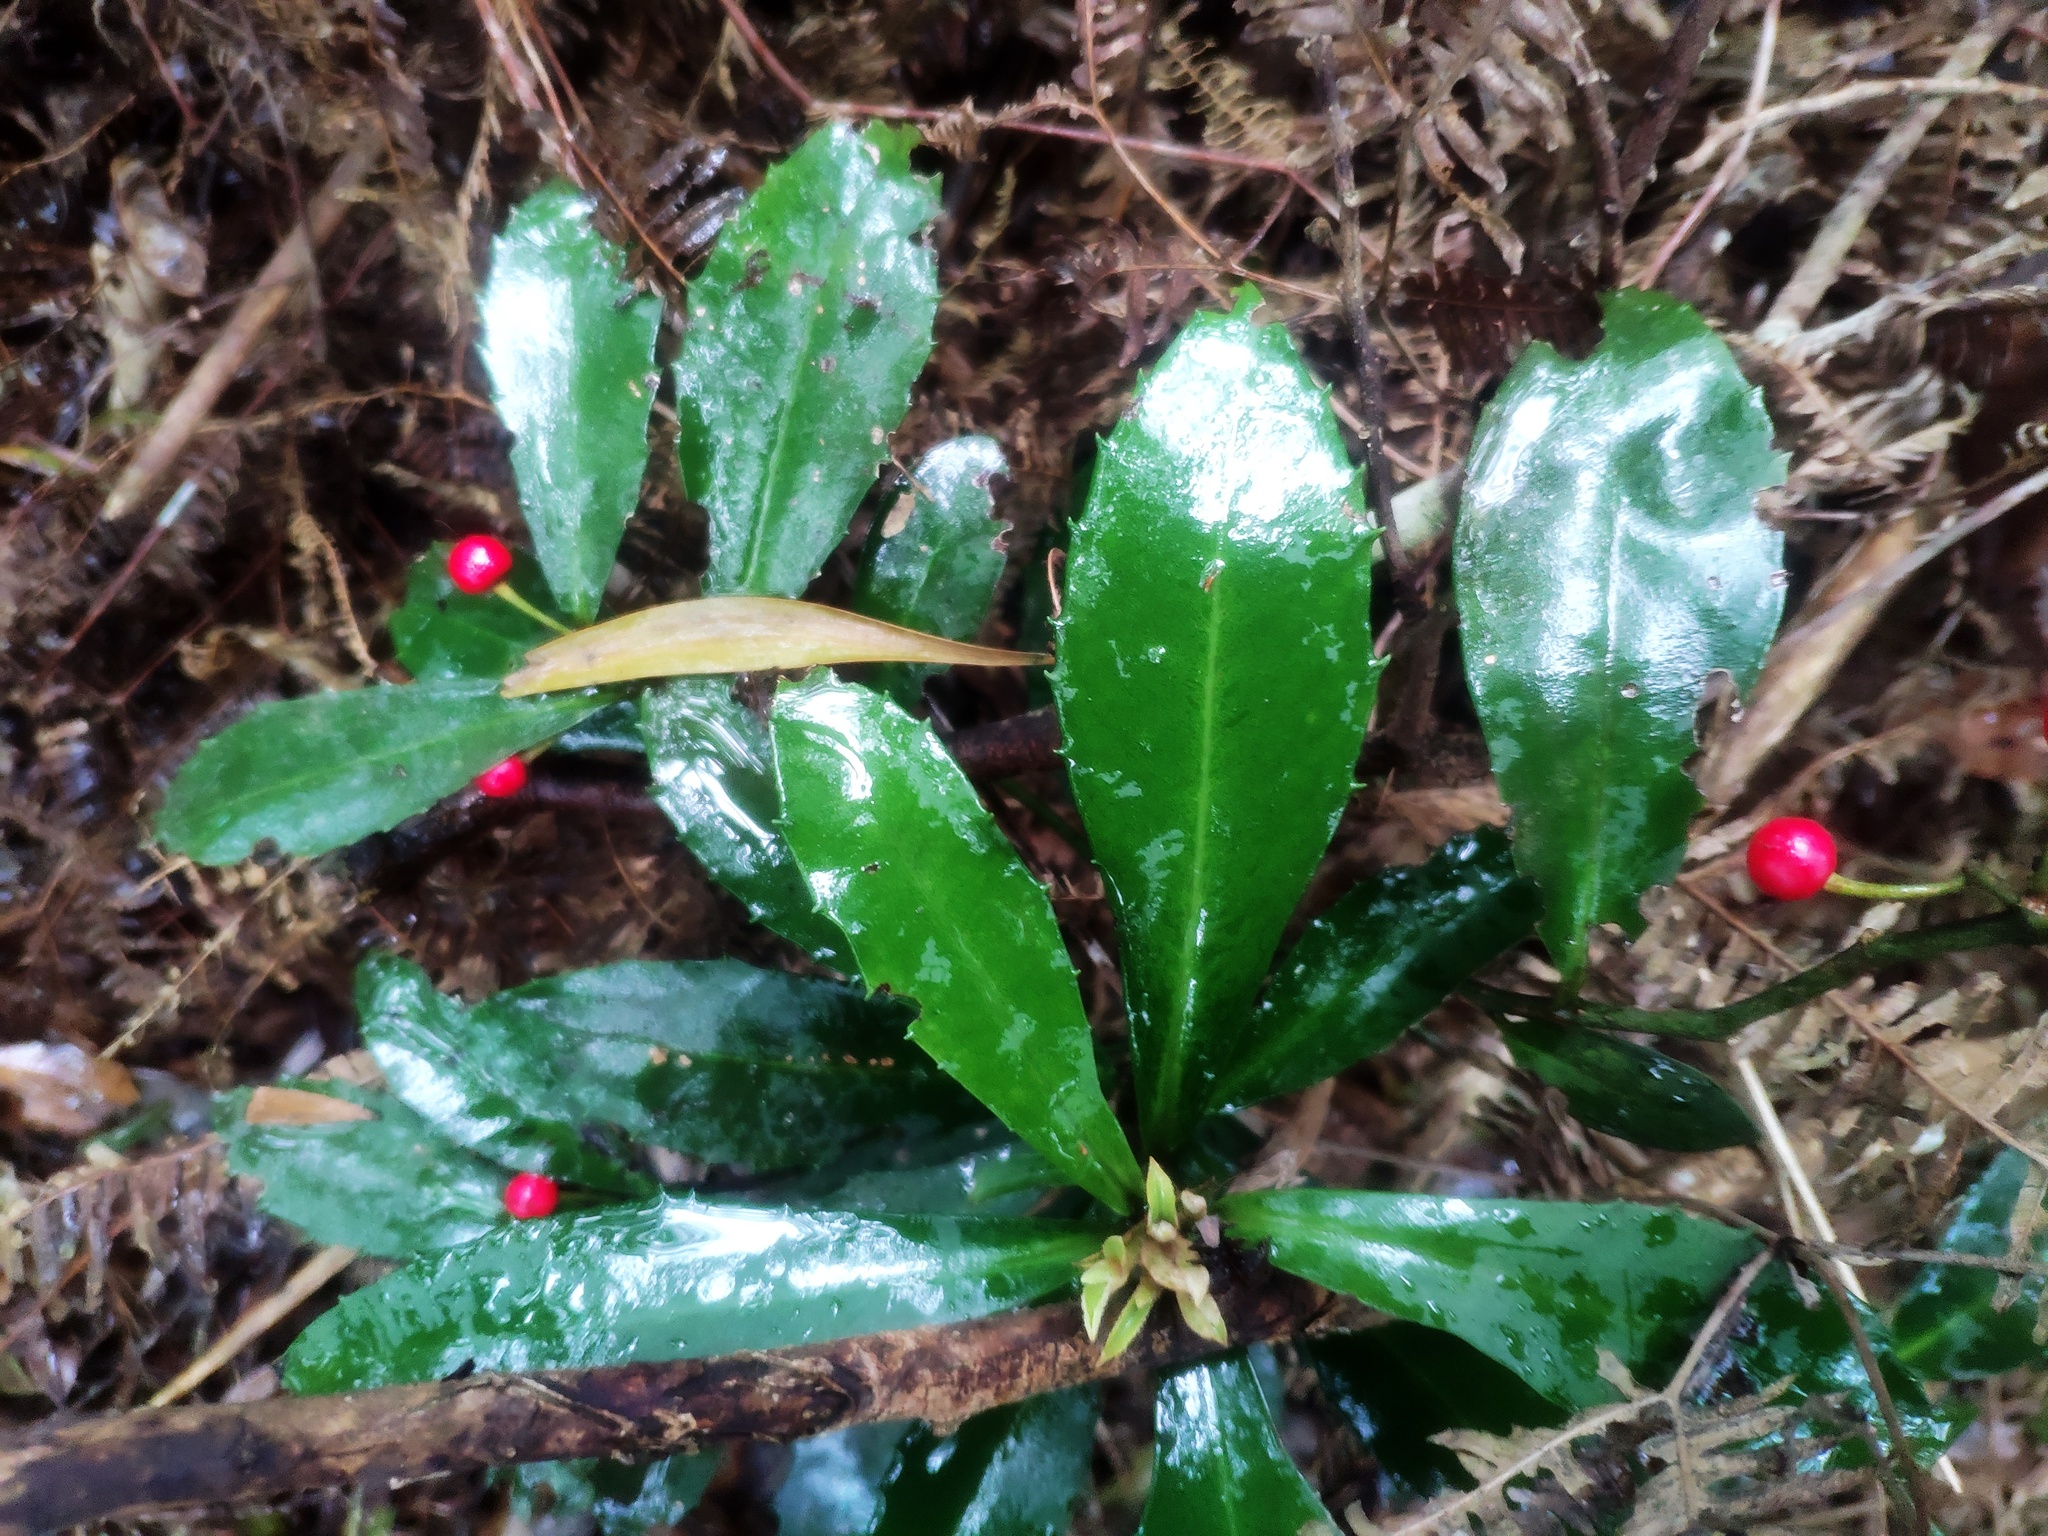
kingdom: Plantae
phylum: Tracheophyta
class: Magnoliopsida
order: Ericales
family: Primulaceae
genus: Ardisia
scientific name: Ardisia cornudentata
